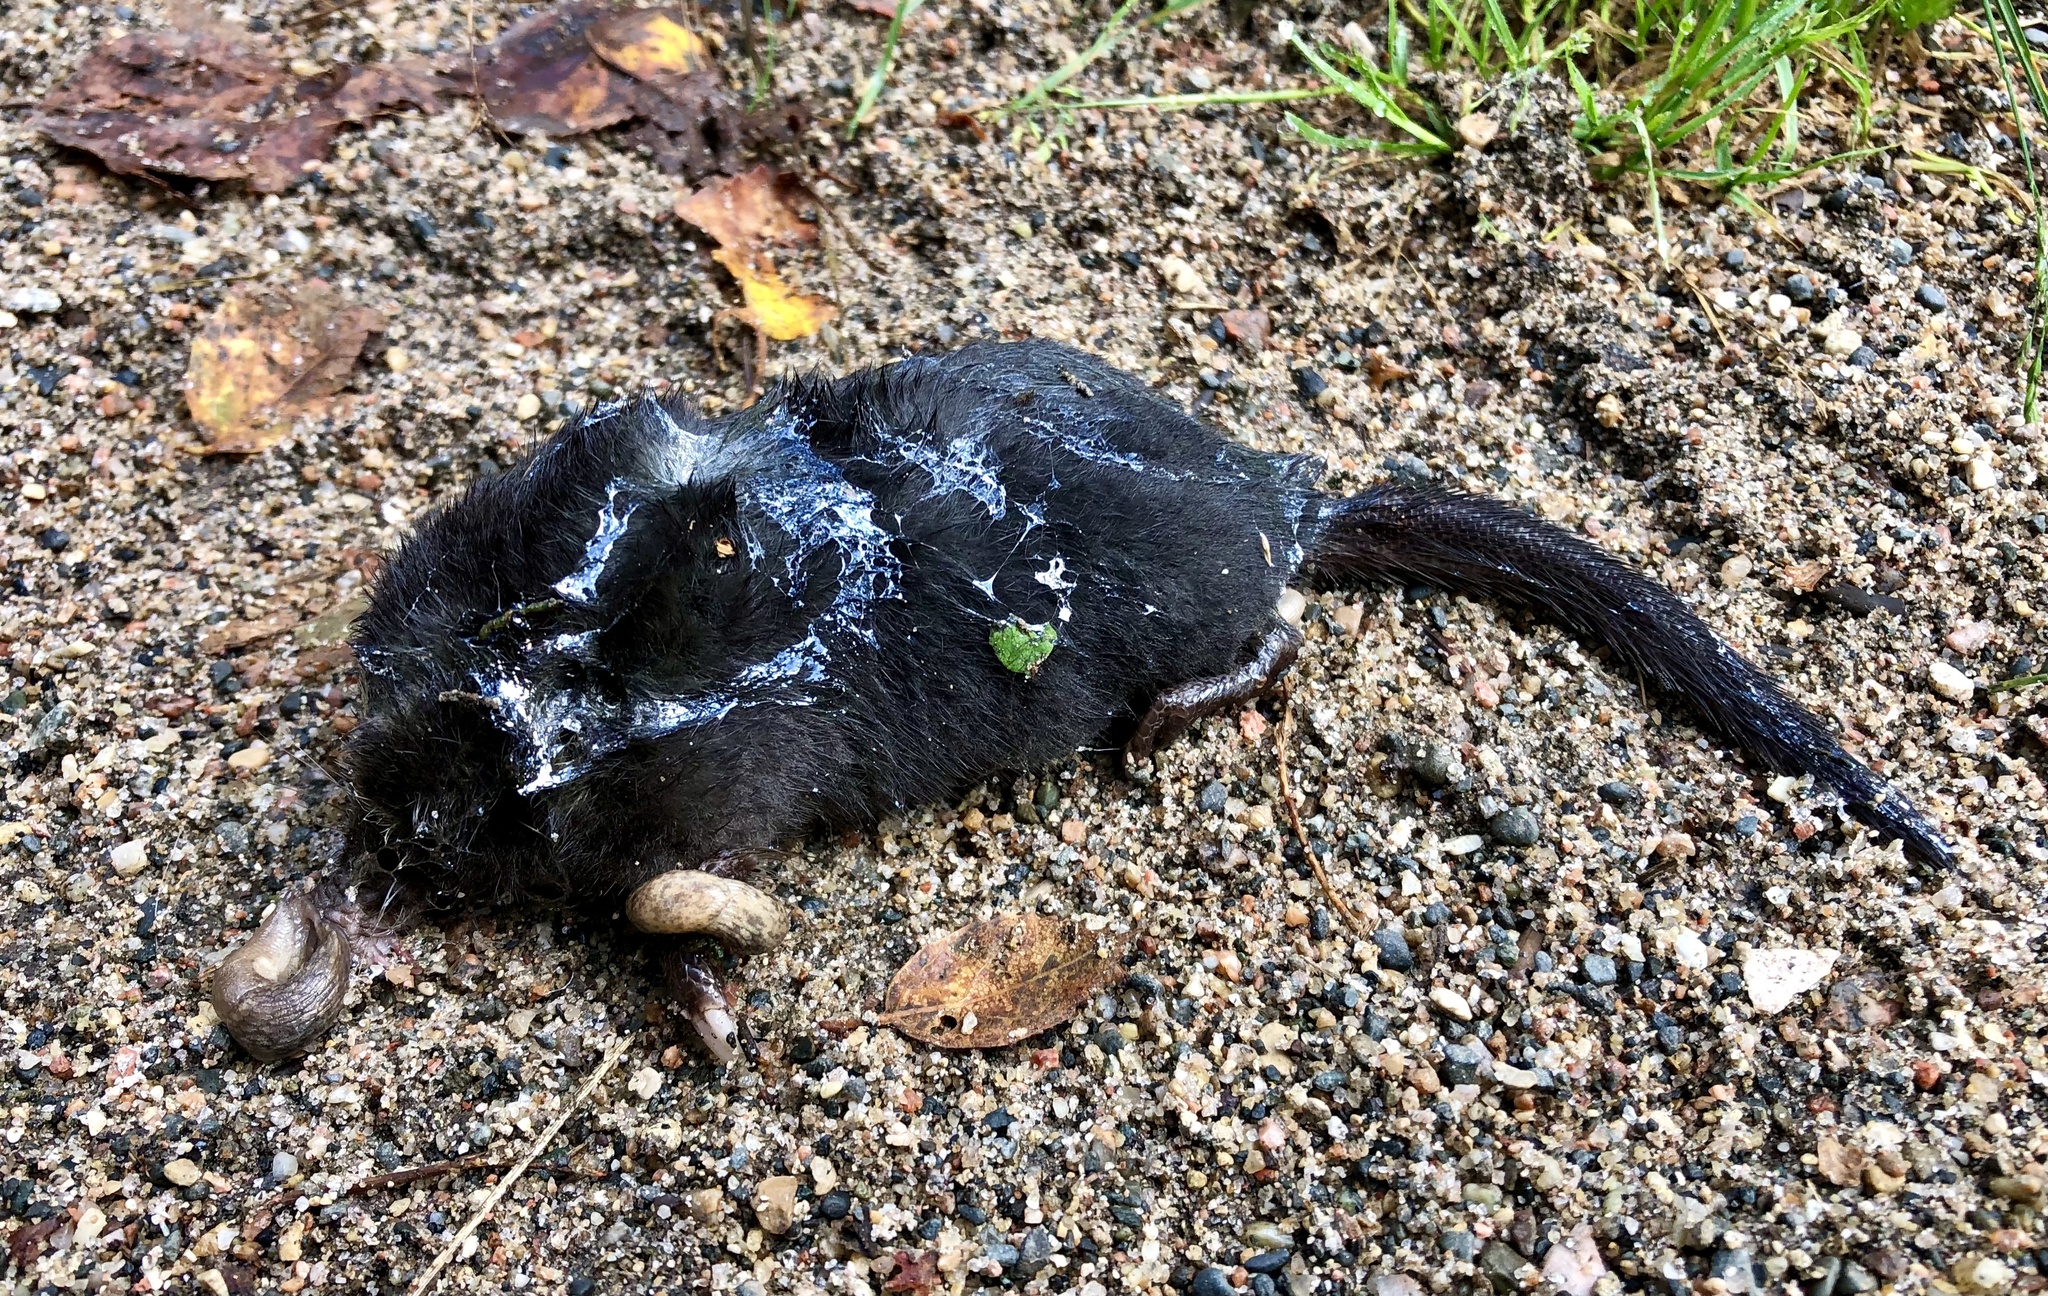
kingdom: Animalia
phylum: Chordata
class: Mammalia
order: Soricomorpha
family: Talpidae
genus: Condylura
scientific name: Condylura cristata
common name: Star-nosed mole
